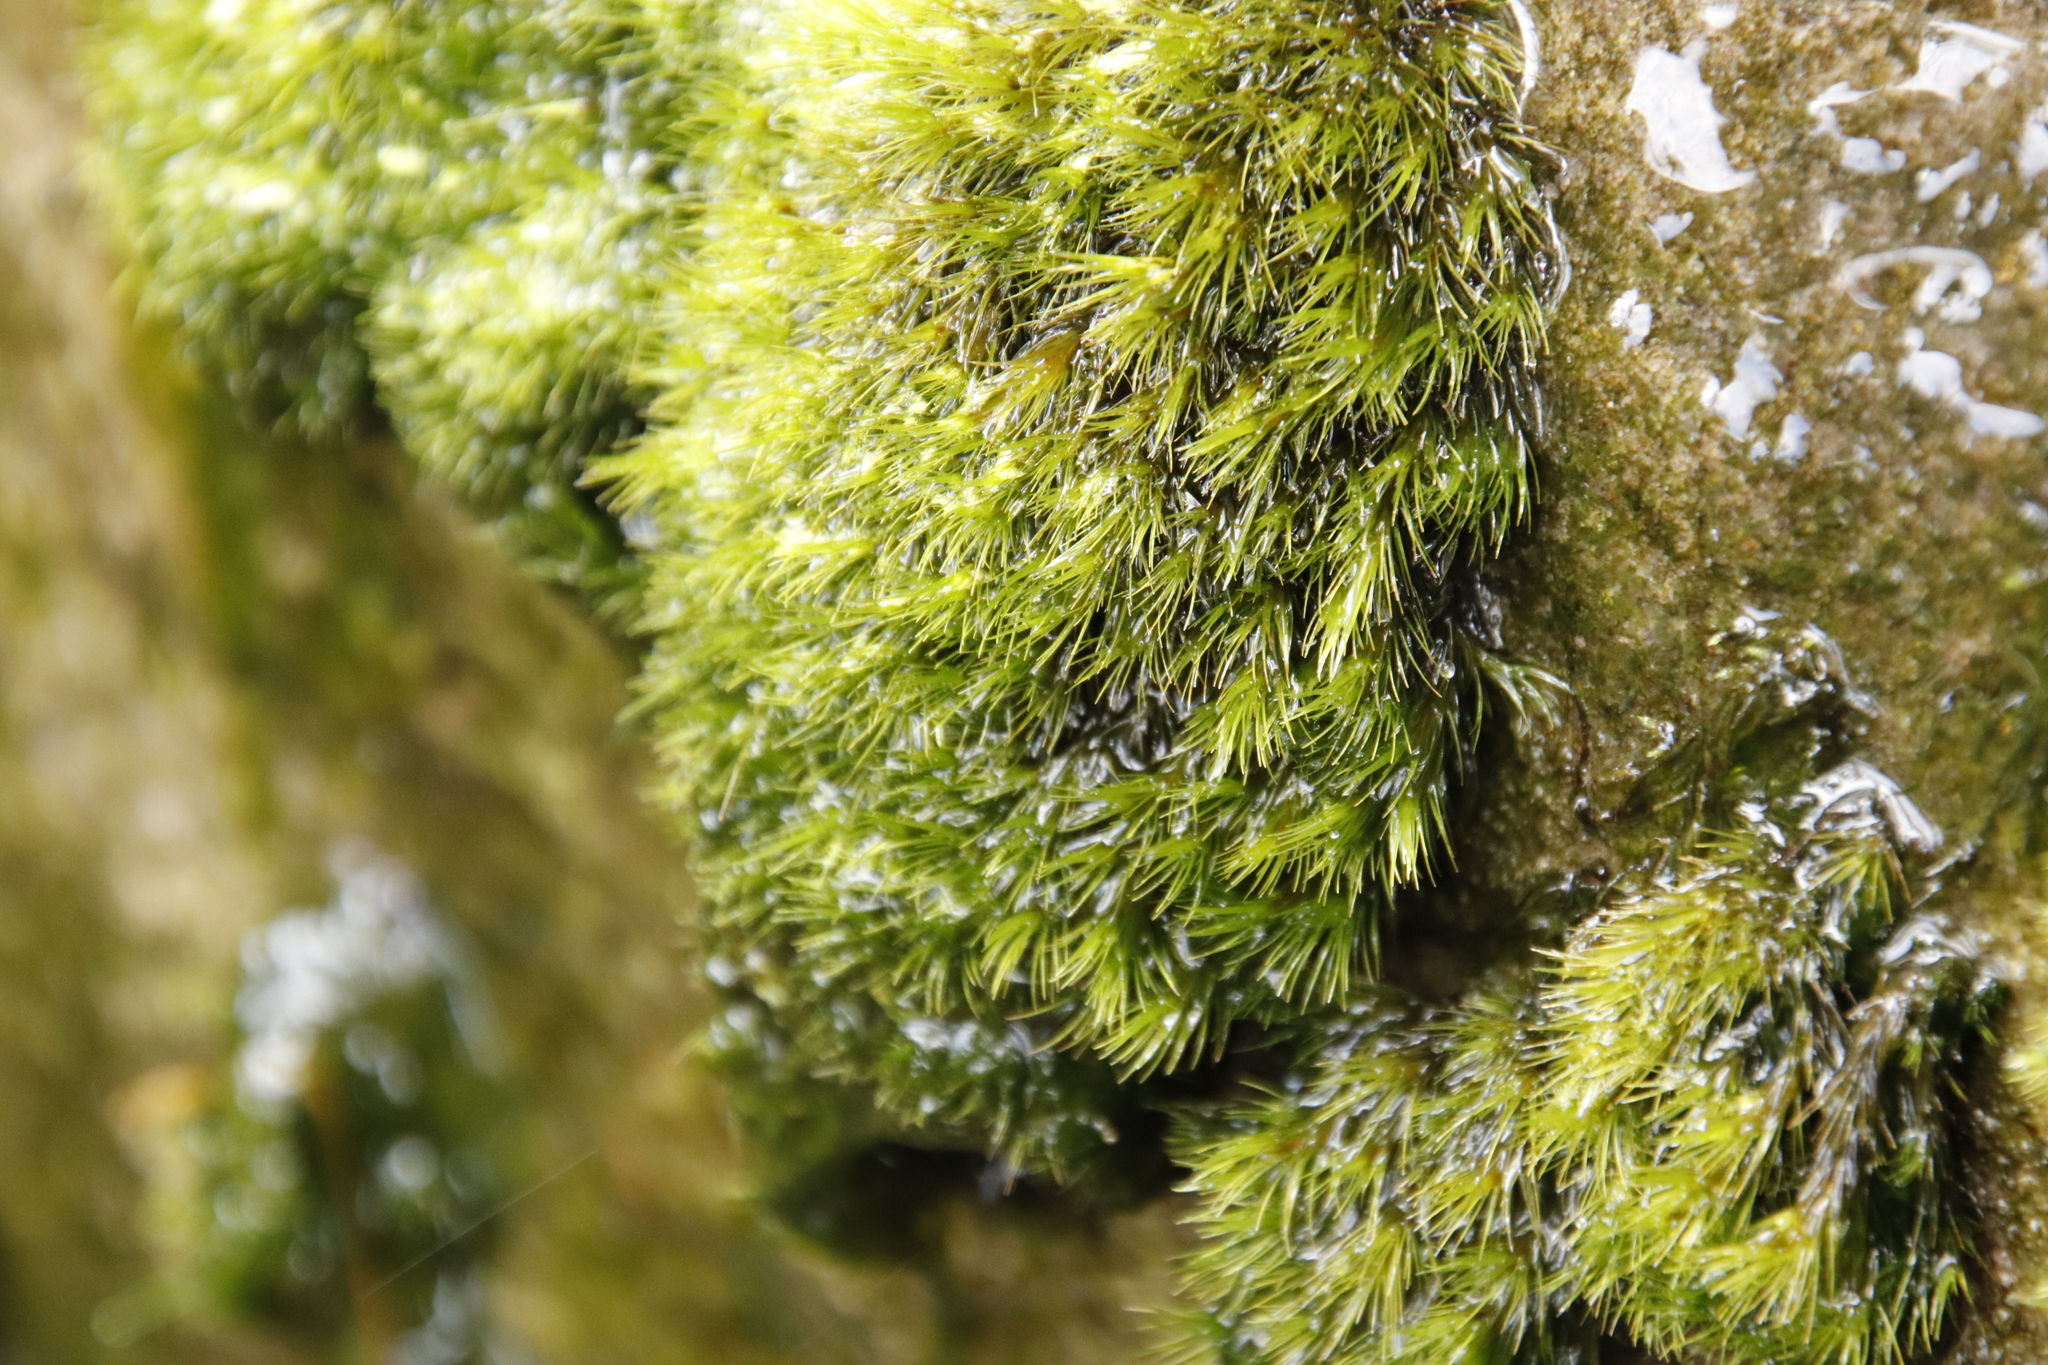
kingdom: Plantae
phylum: Bryophyta
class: Bryopsida
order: Dicranales
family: Leucobryaceae
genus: Campylopus
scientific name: Campylopus bartramiaceus
